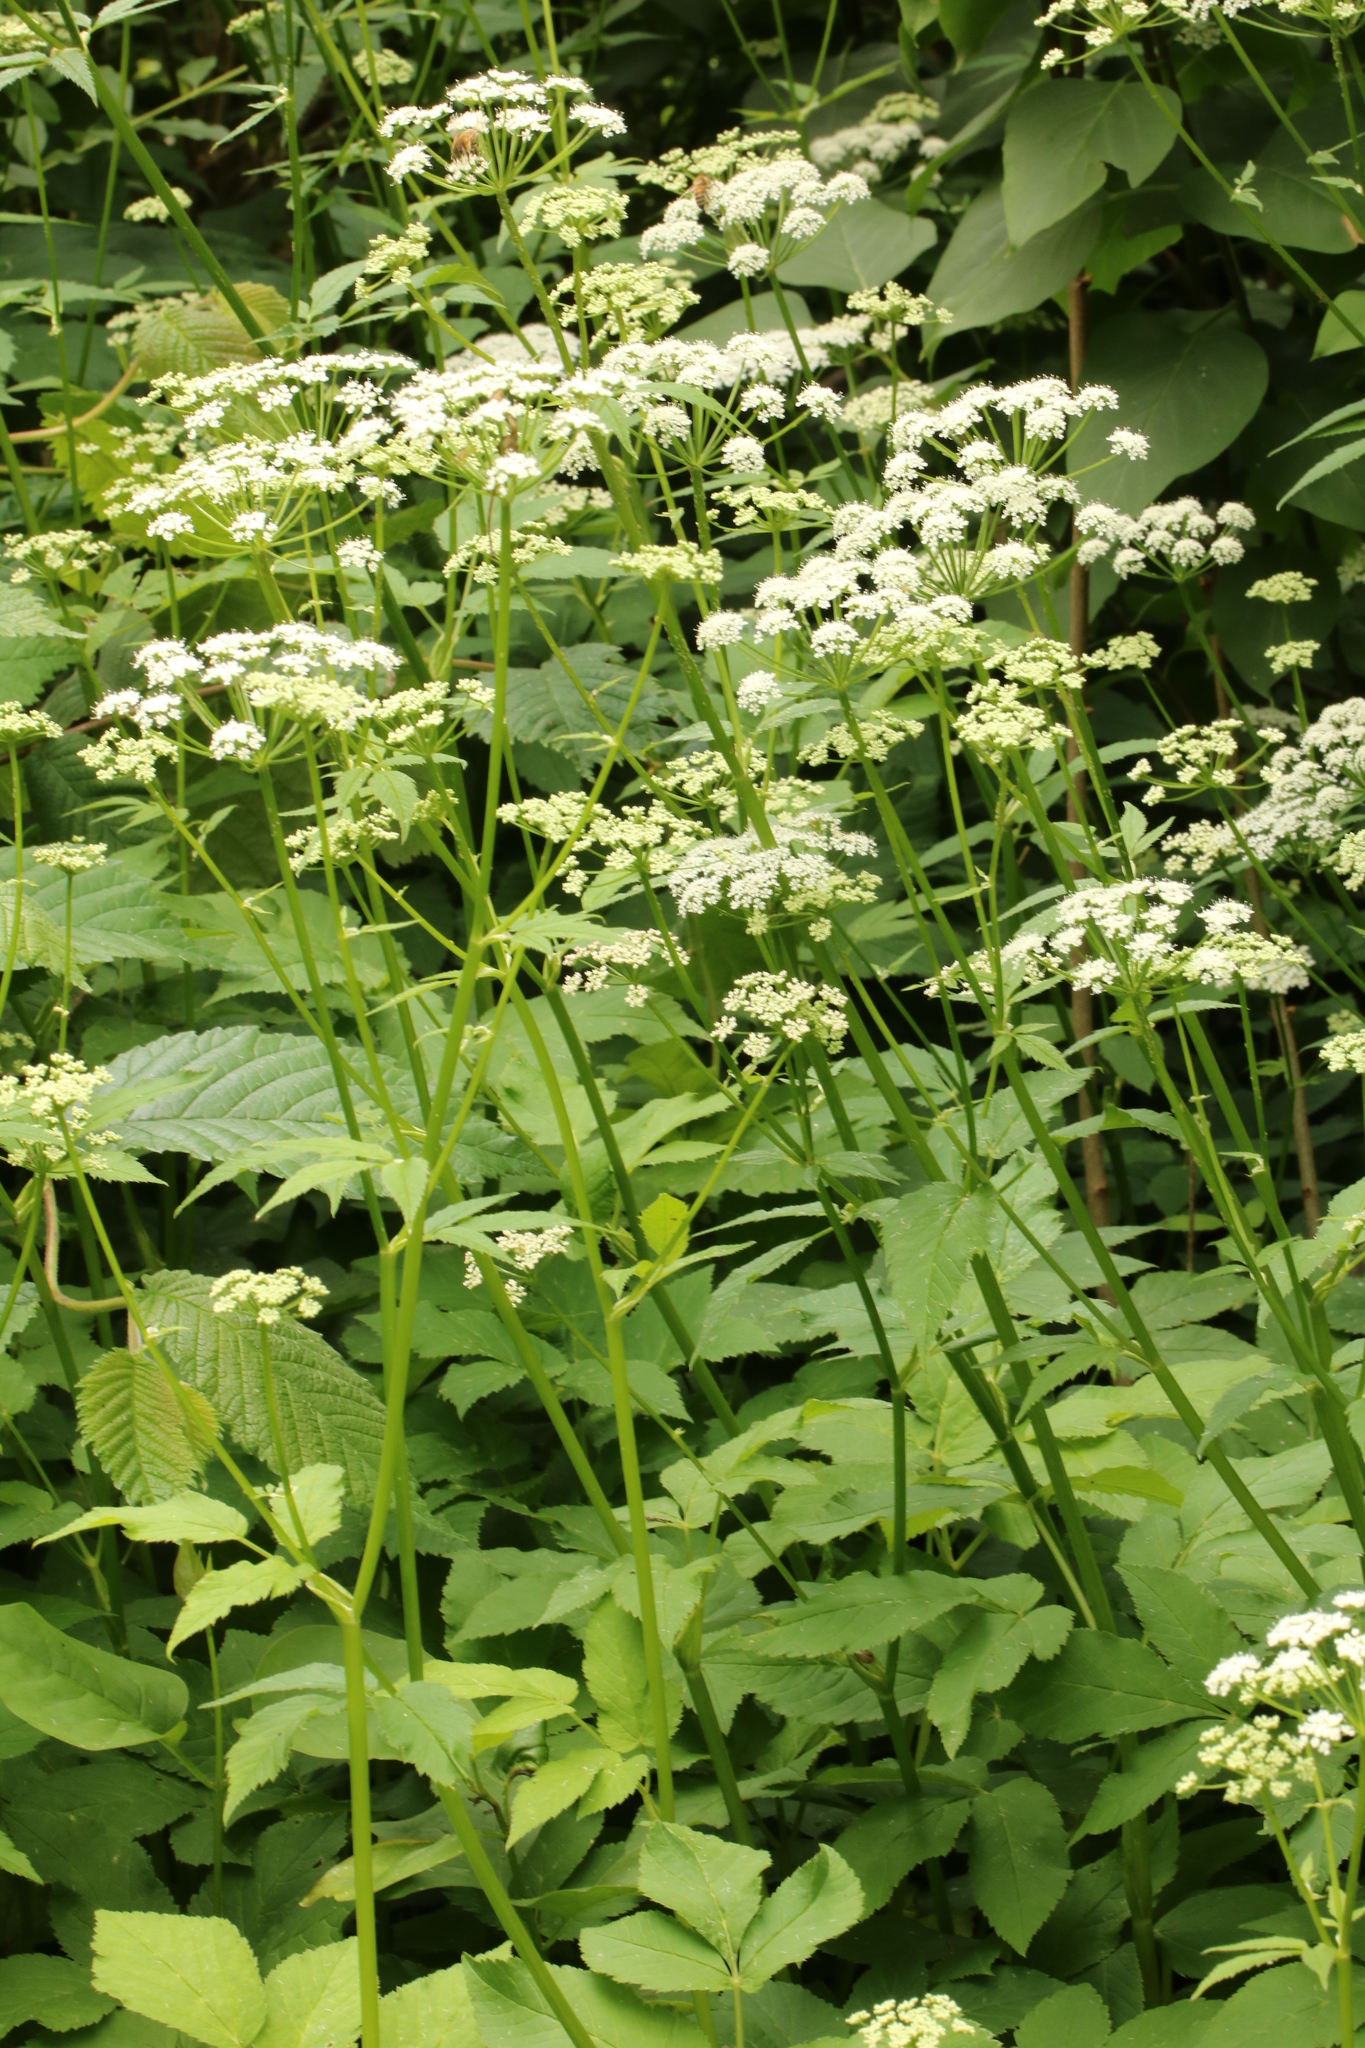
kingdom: Plantae
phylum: Tracheophyta
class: Magnoliopsida
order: Apiales
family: Apiaceae
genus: Aegopodium
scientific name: Aegopodium podagraria
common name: Ground-elder
